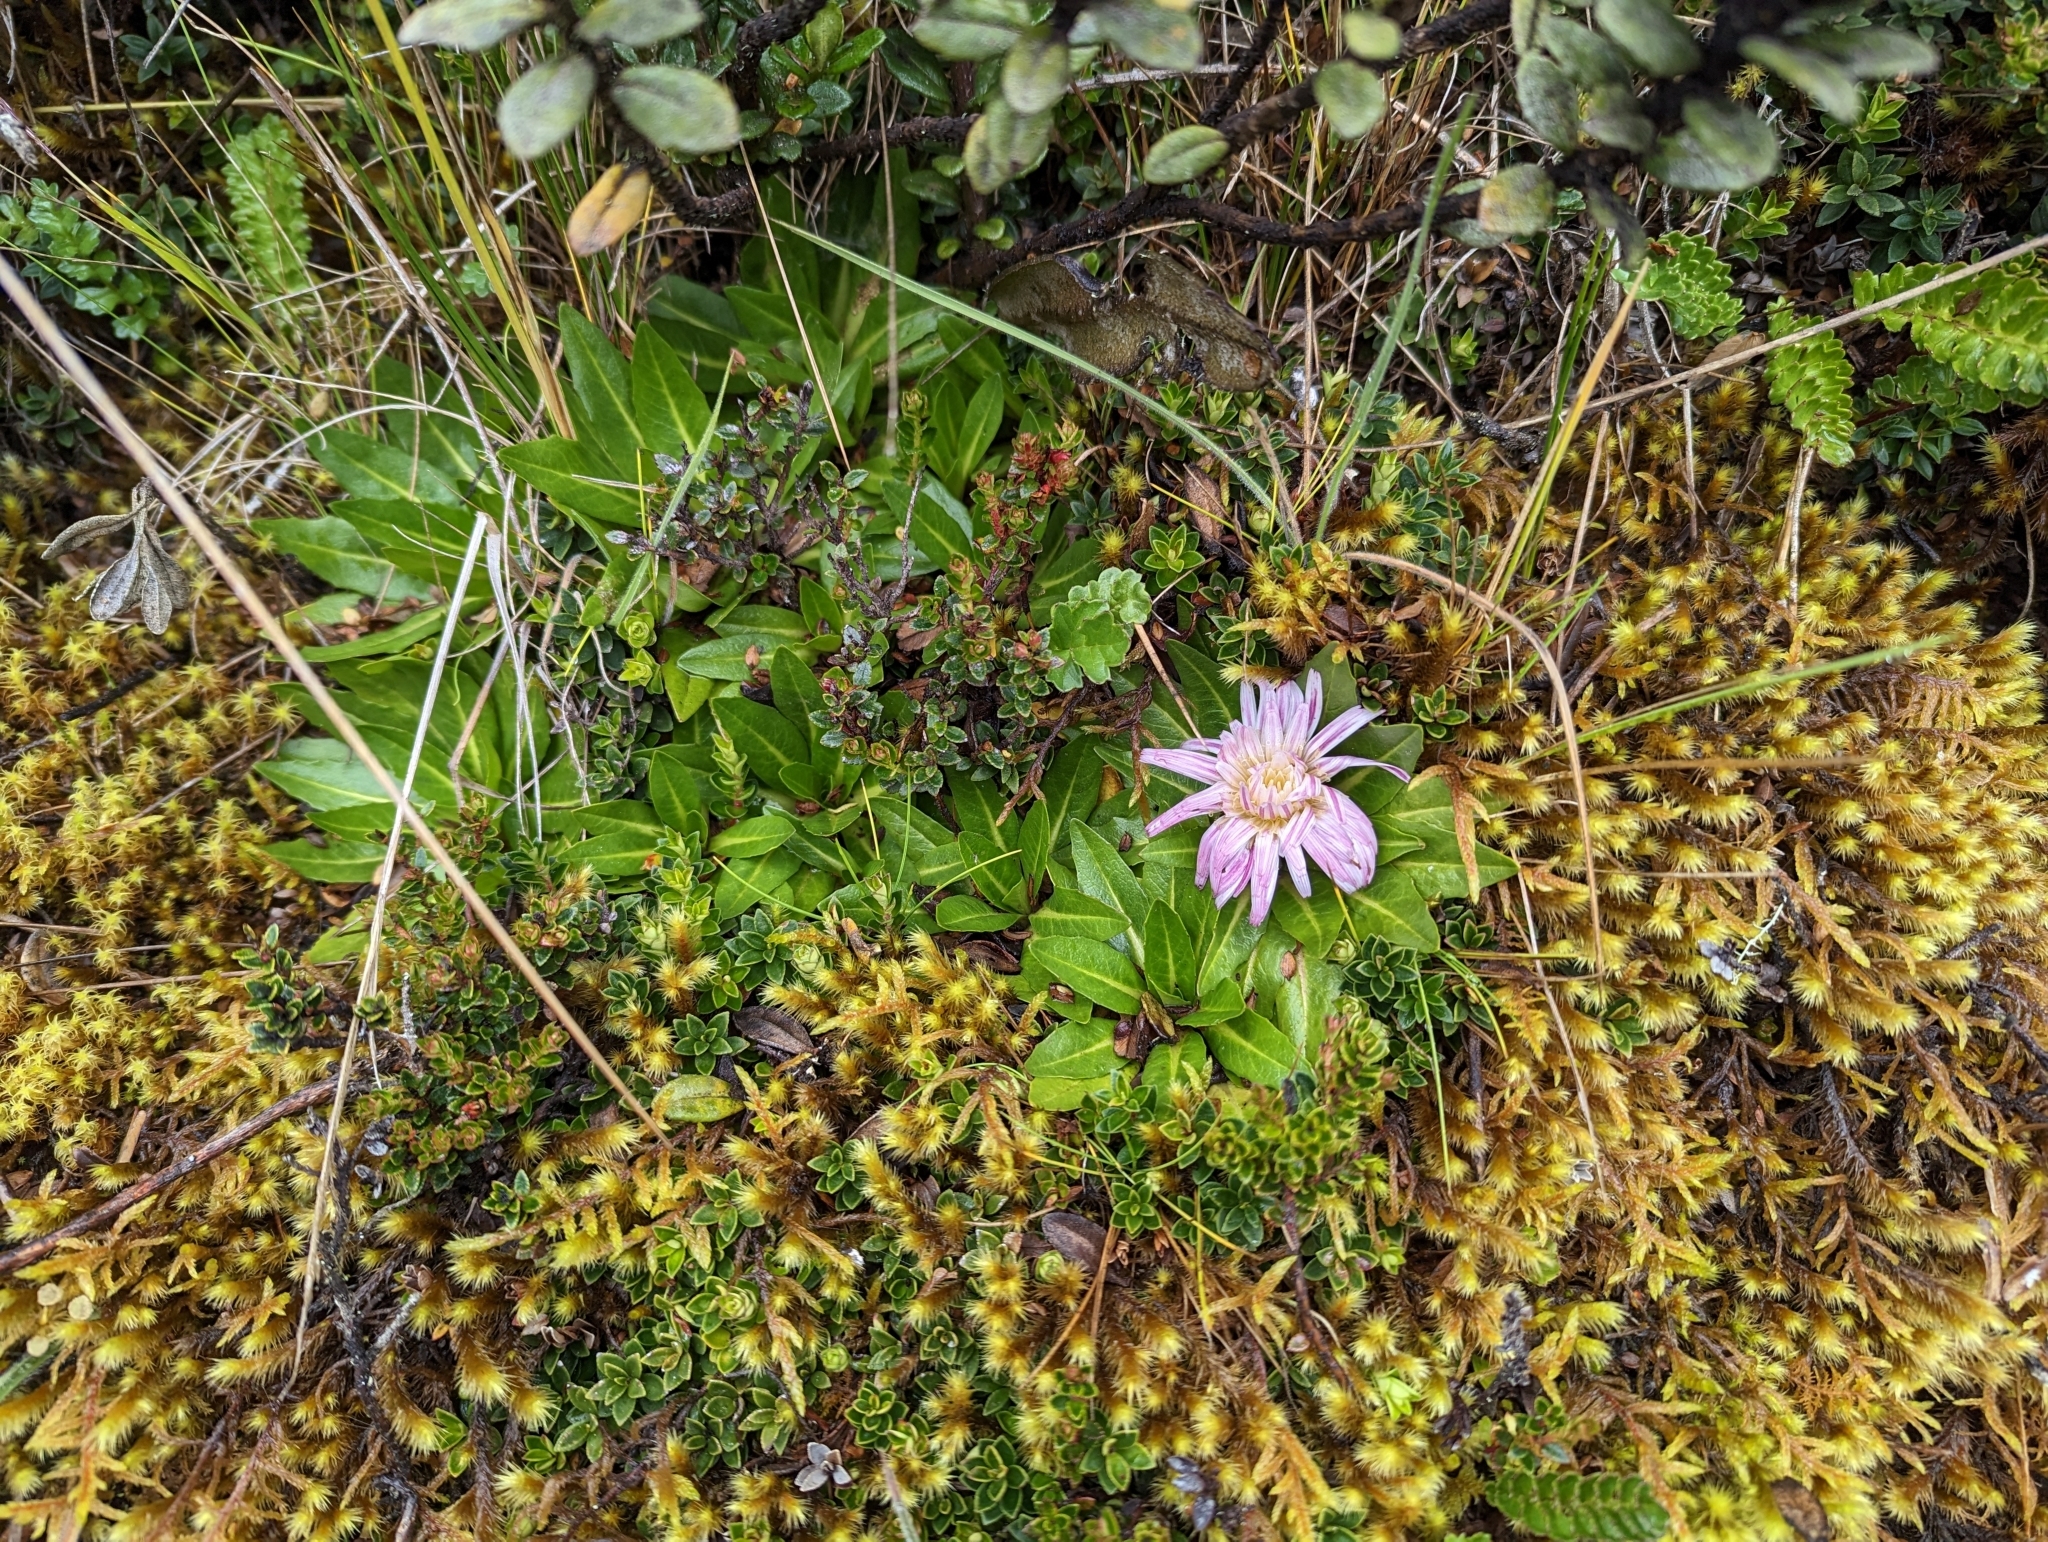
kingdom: Plantae
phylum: Tracheophyta
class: Magnoliopsida
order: Asterales
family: Asteraceae
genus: Hypochaeris
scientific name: Hypochaeris sessiliflora
